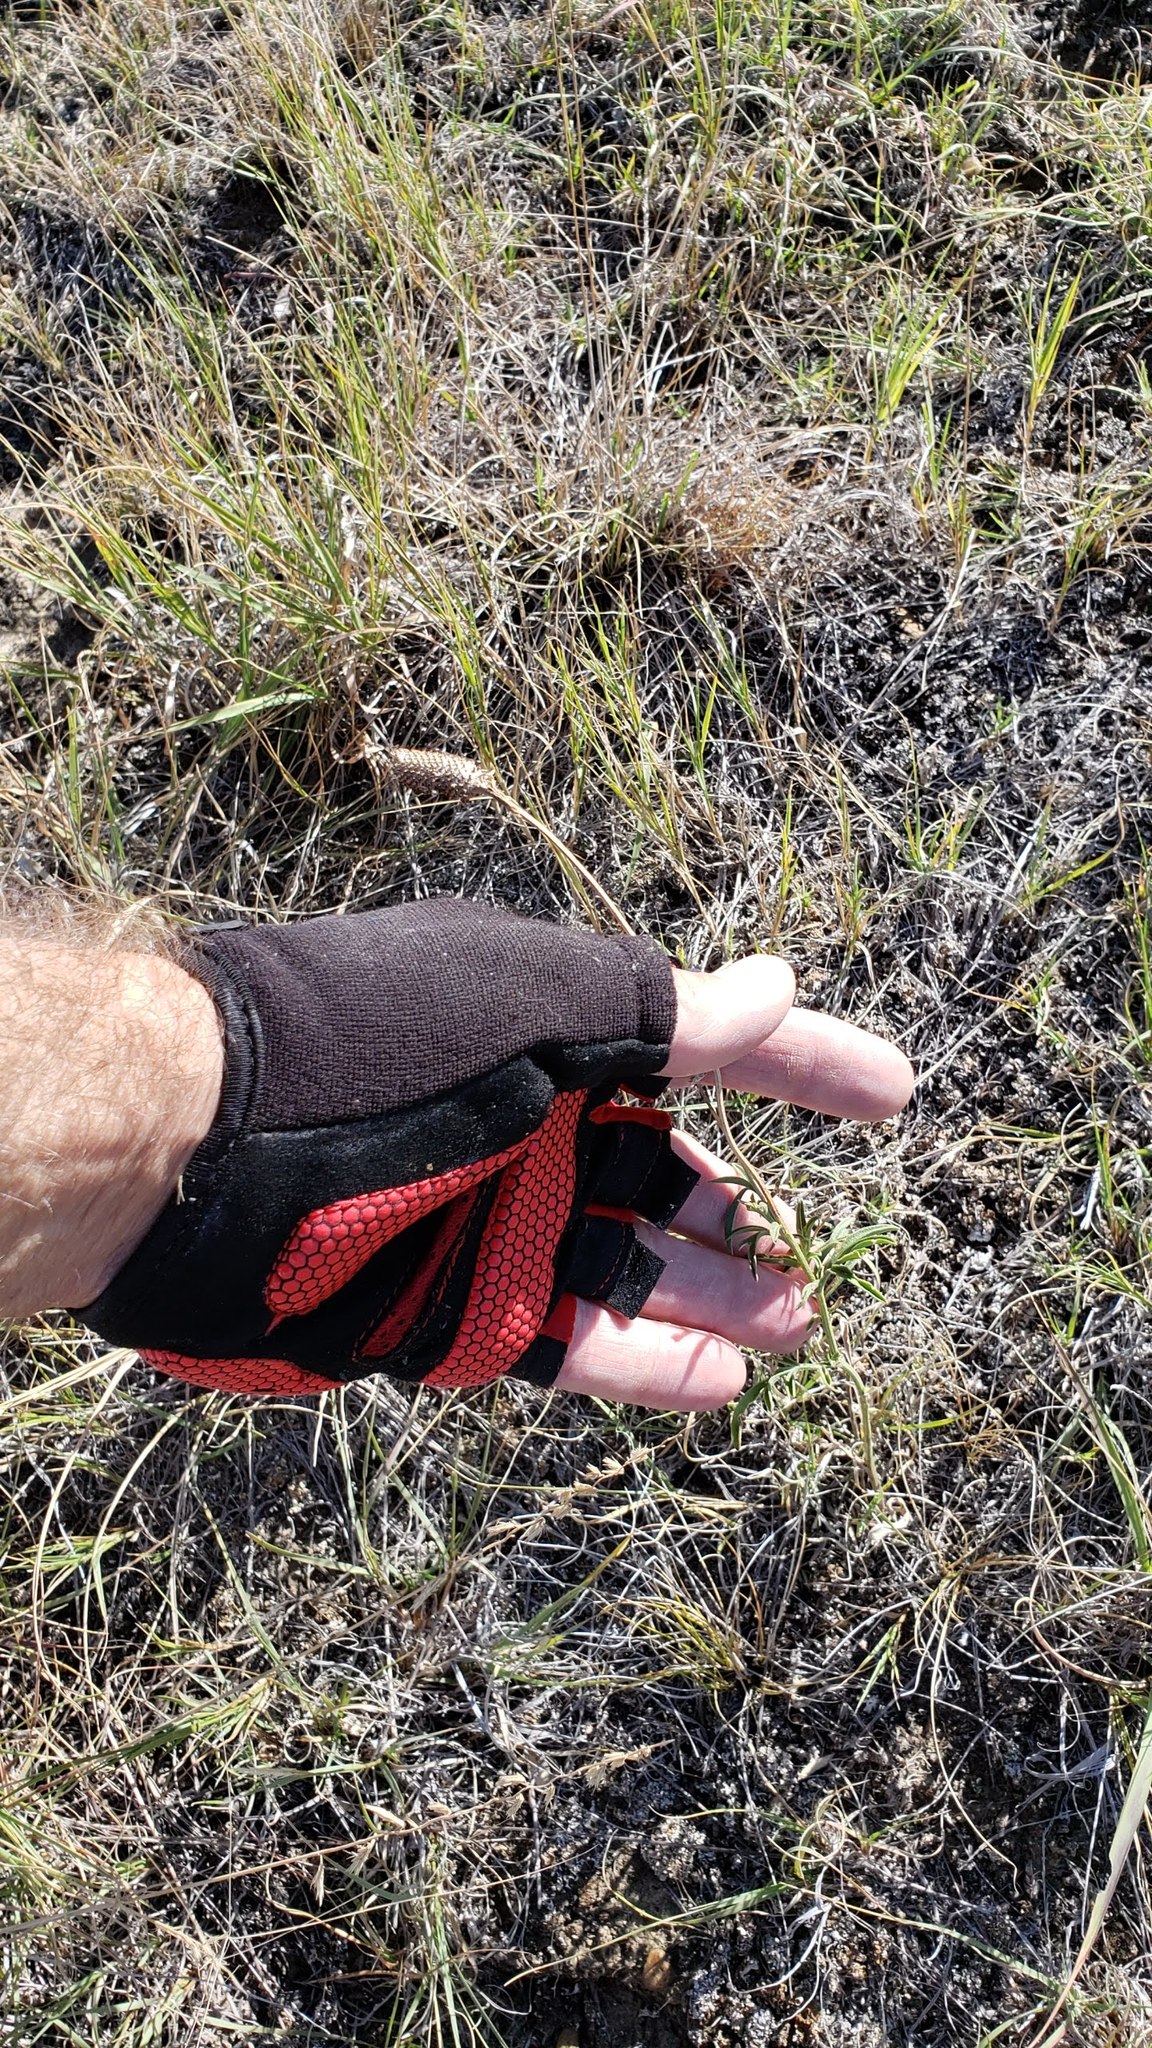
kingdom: Plantae
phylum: Tracheophyta
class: Magnoliopsida
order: Asterales
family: Asteraceae
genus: Ratibida
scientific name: Ratibida columnifera
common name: Prairie coneflower
